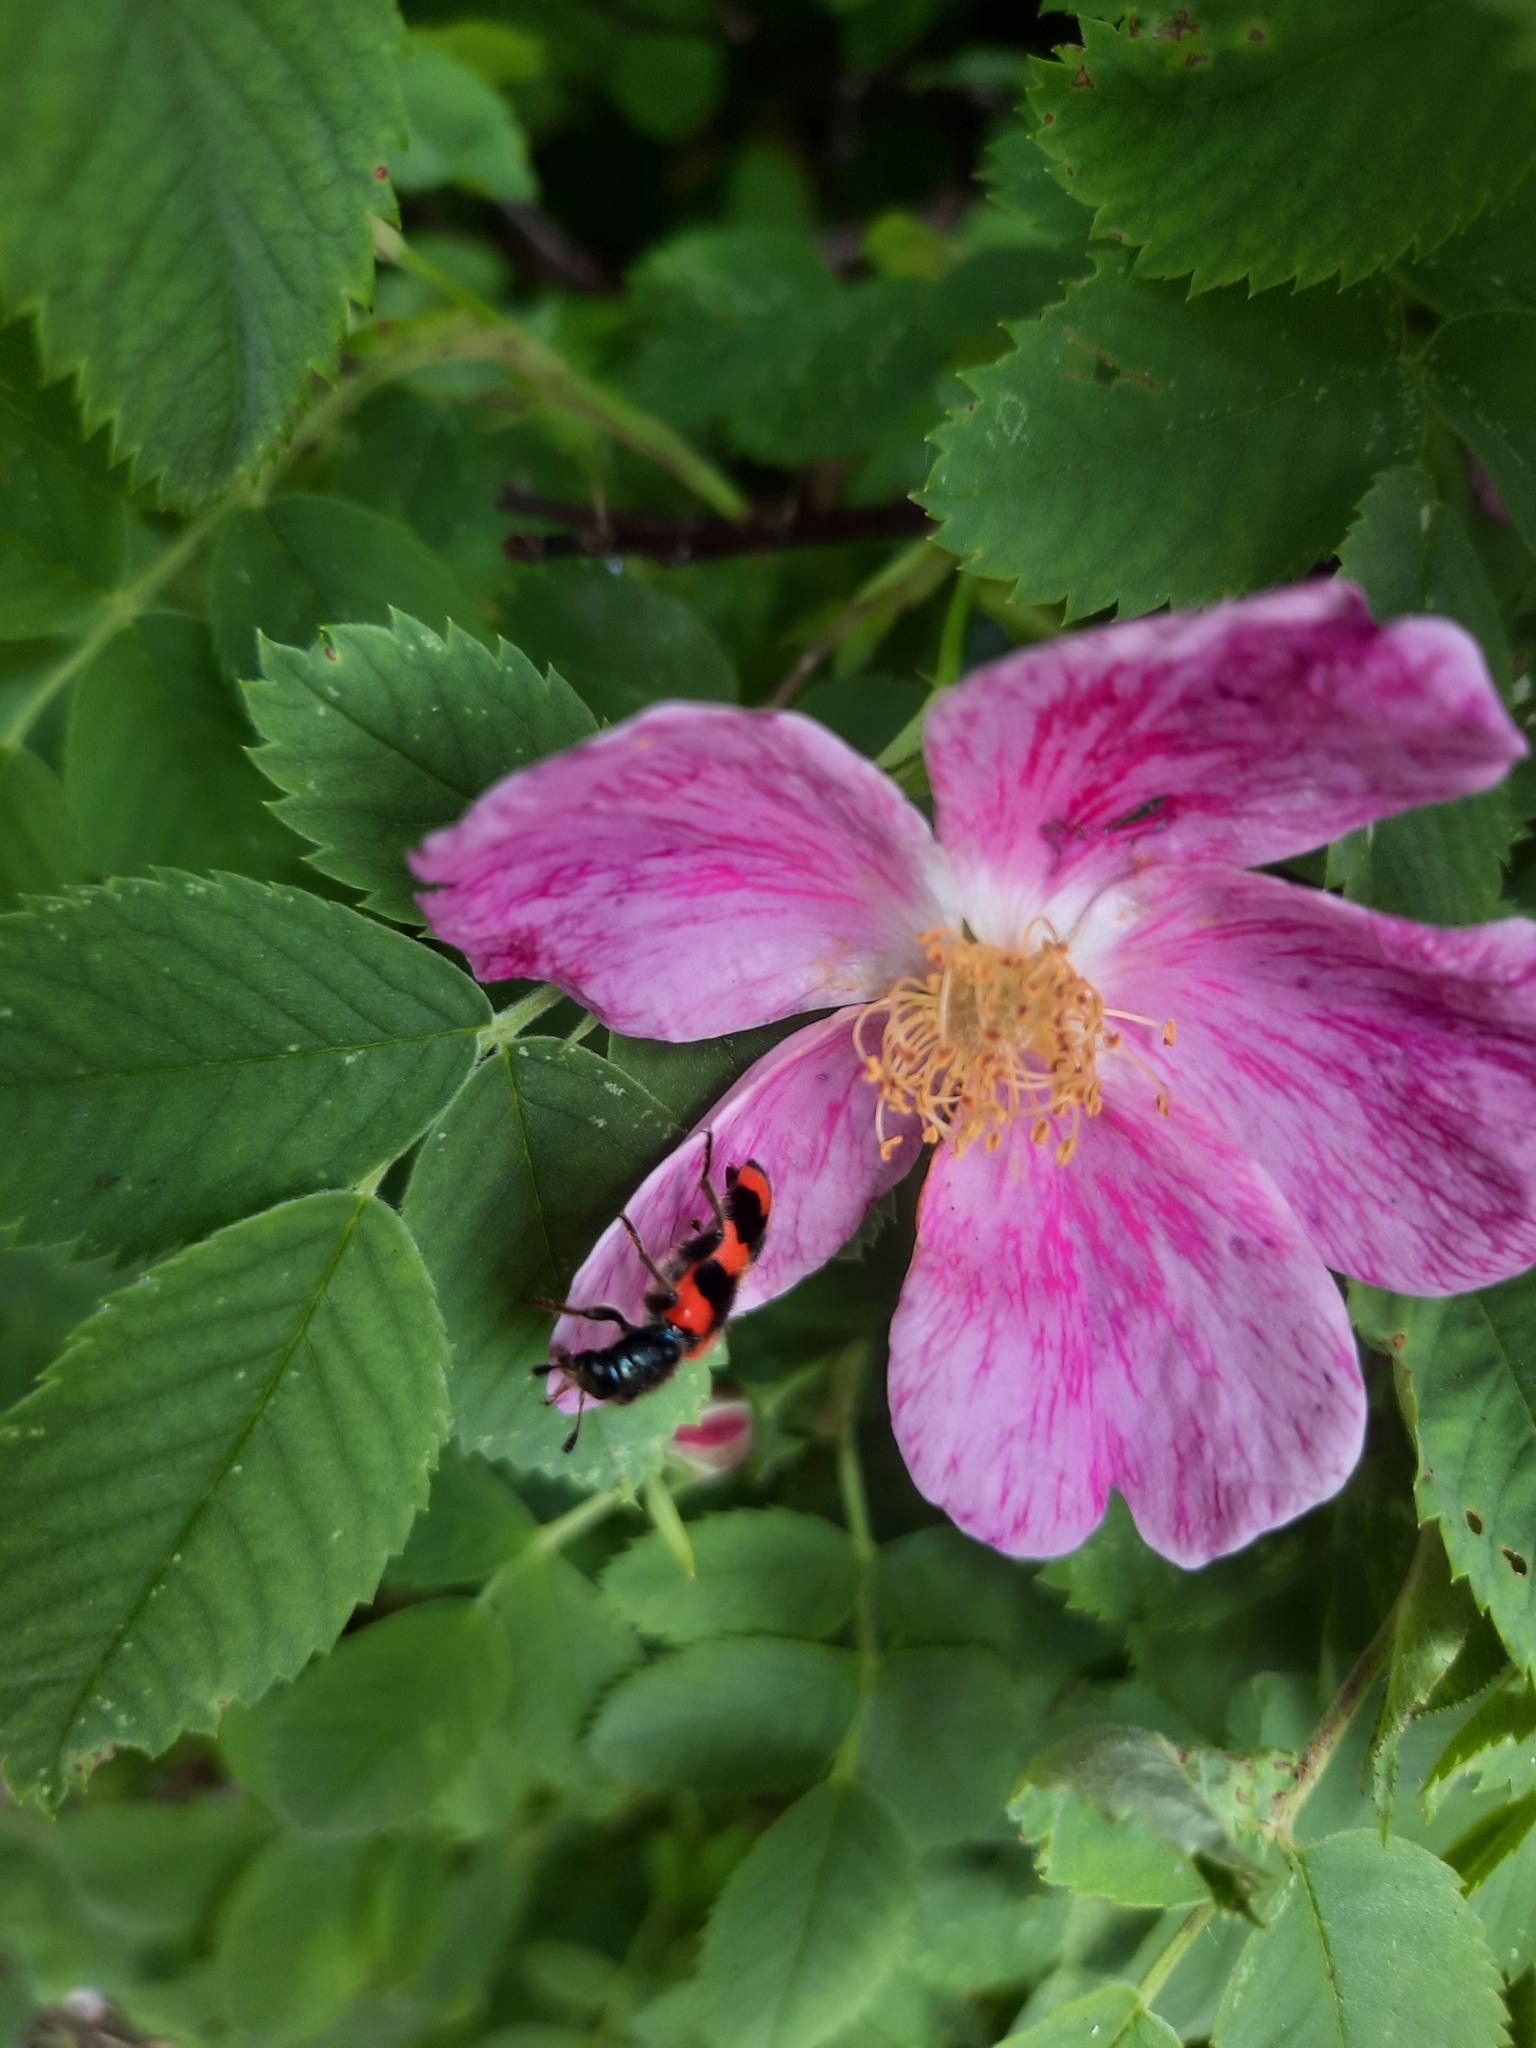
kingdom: Animalia
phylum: Arthropoda
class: Insecta
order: Coleoptera
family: Cleridae
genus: Trichodes
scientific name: Trichodes apiarius
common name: Bee-eating beetle
